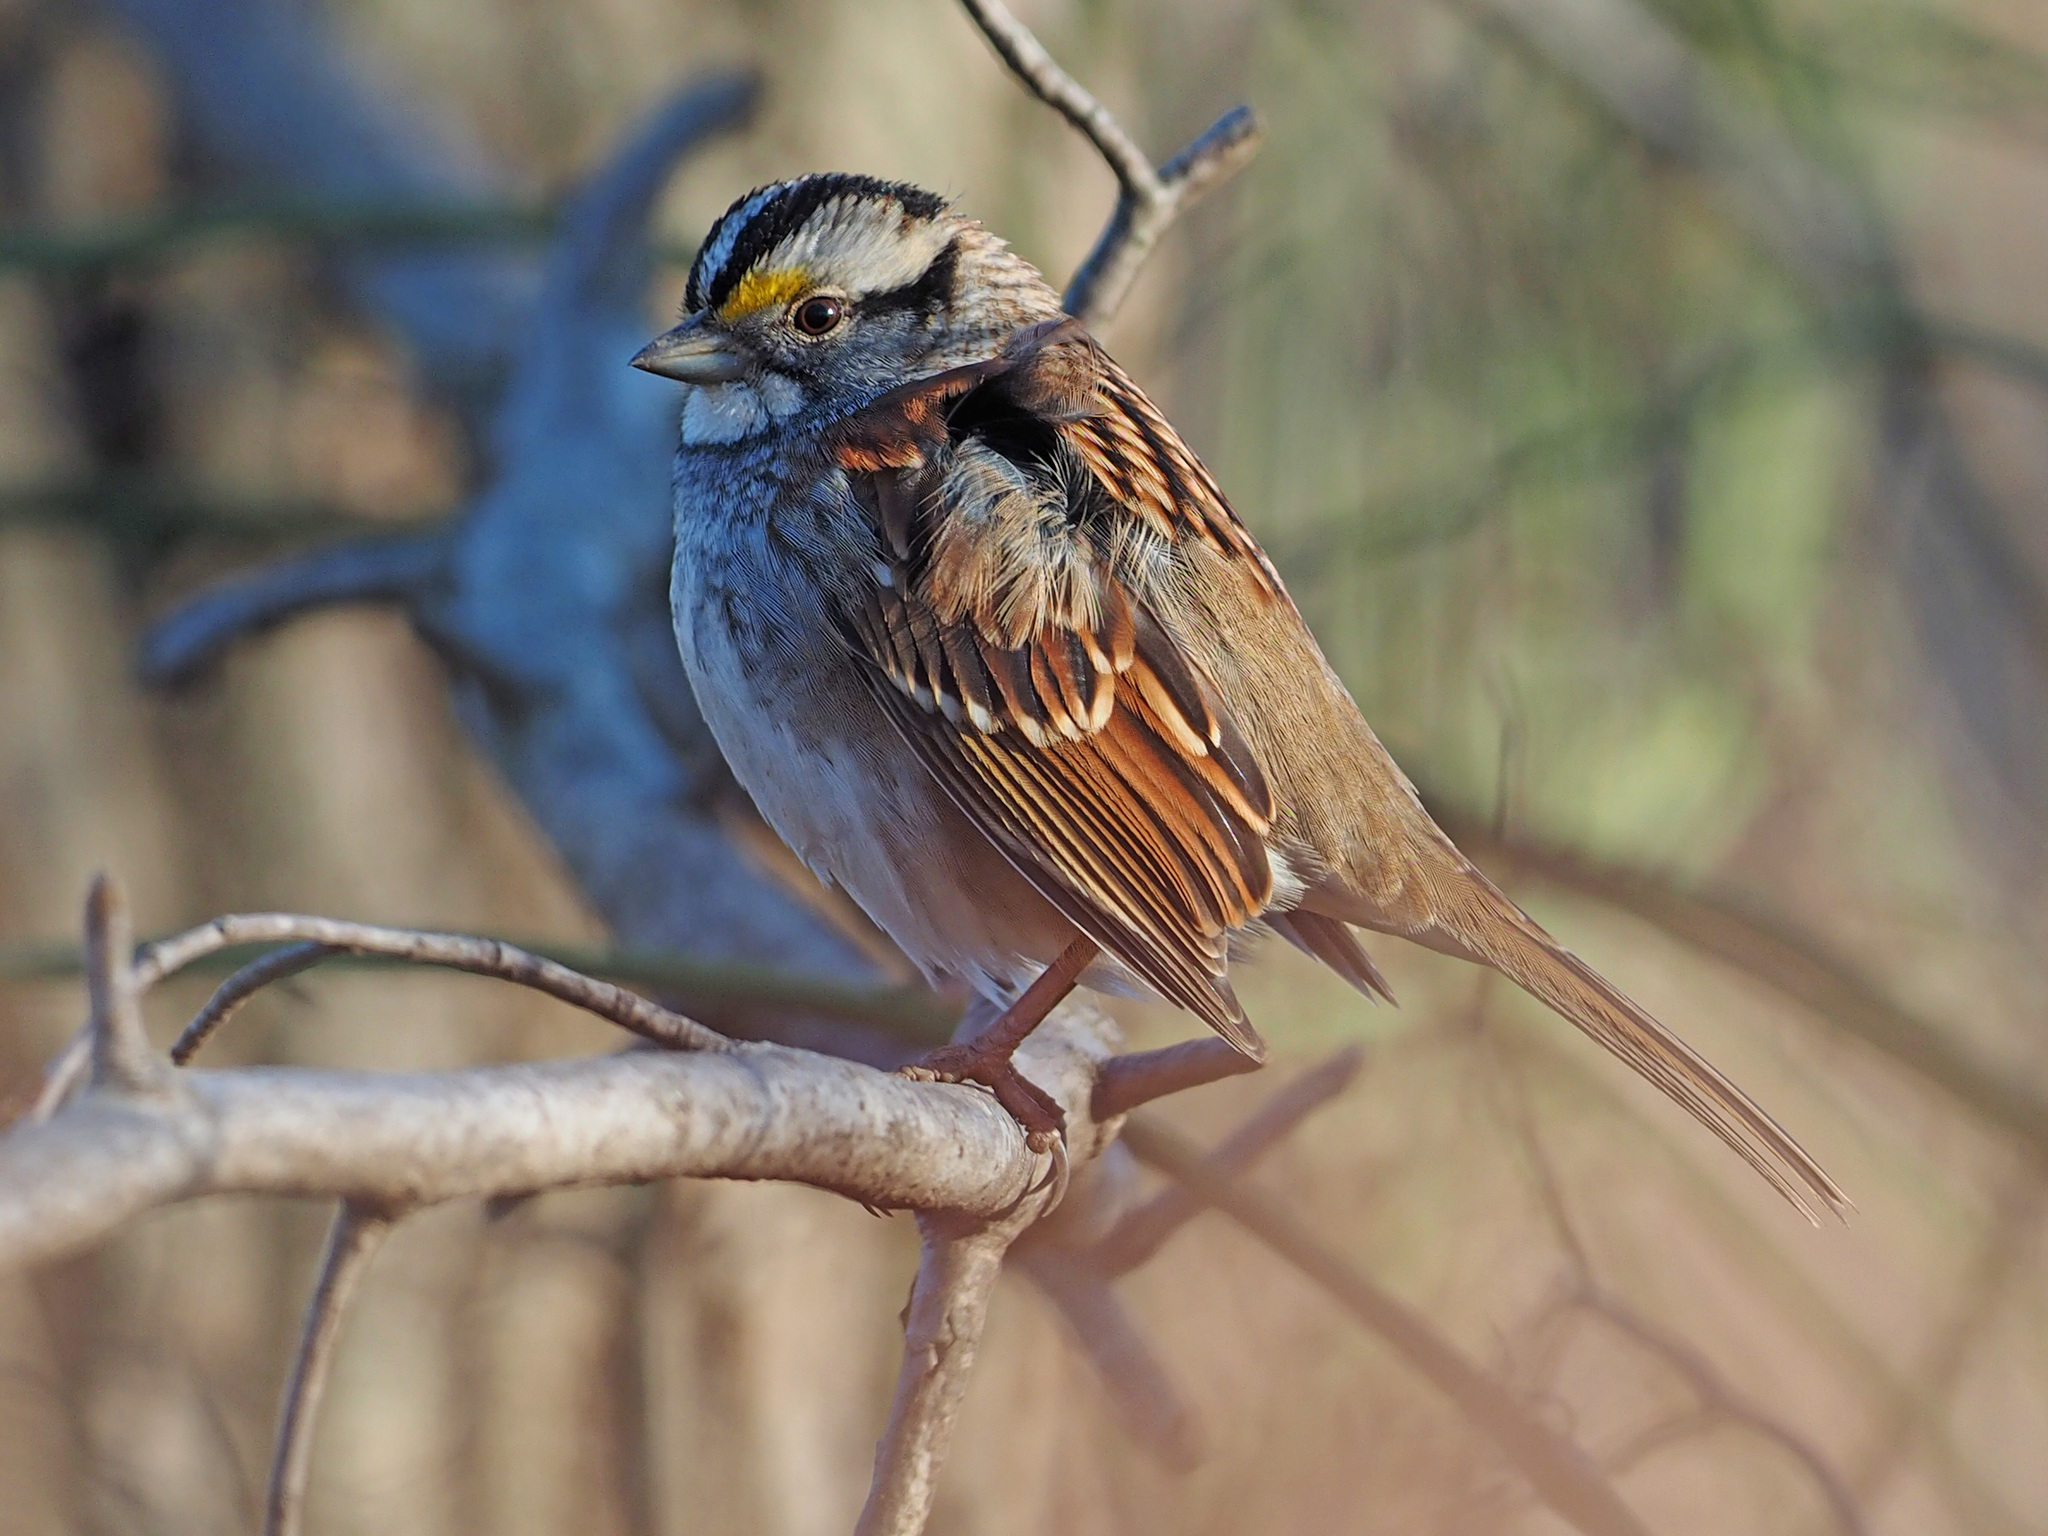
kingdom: Animalia
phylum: Chordata
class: Aves
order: Passeriformes
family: Passerellidae
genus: Zonotrichia
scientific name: Zonotrichia albicollis
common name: White-throated sparrow
